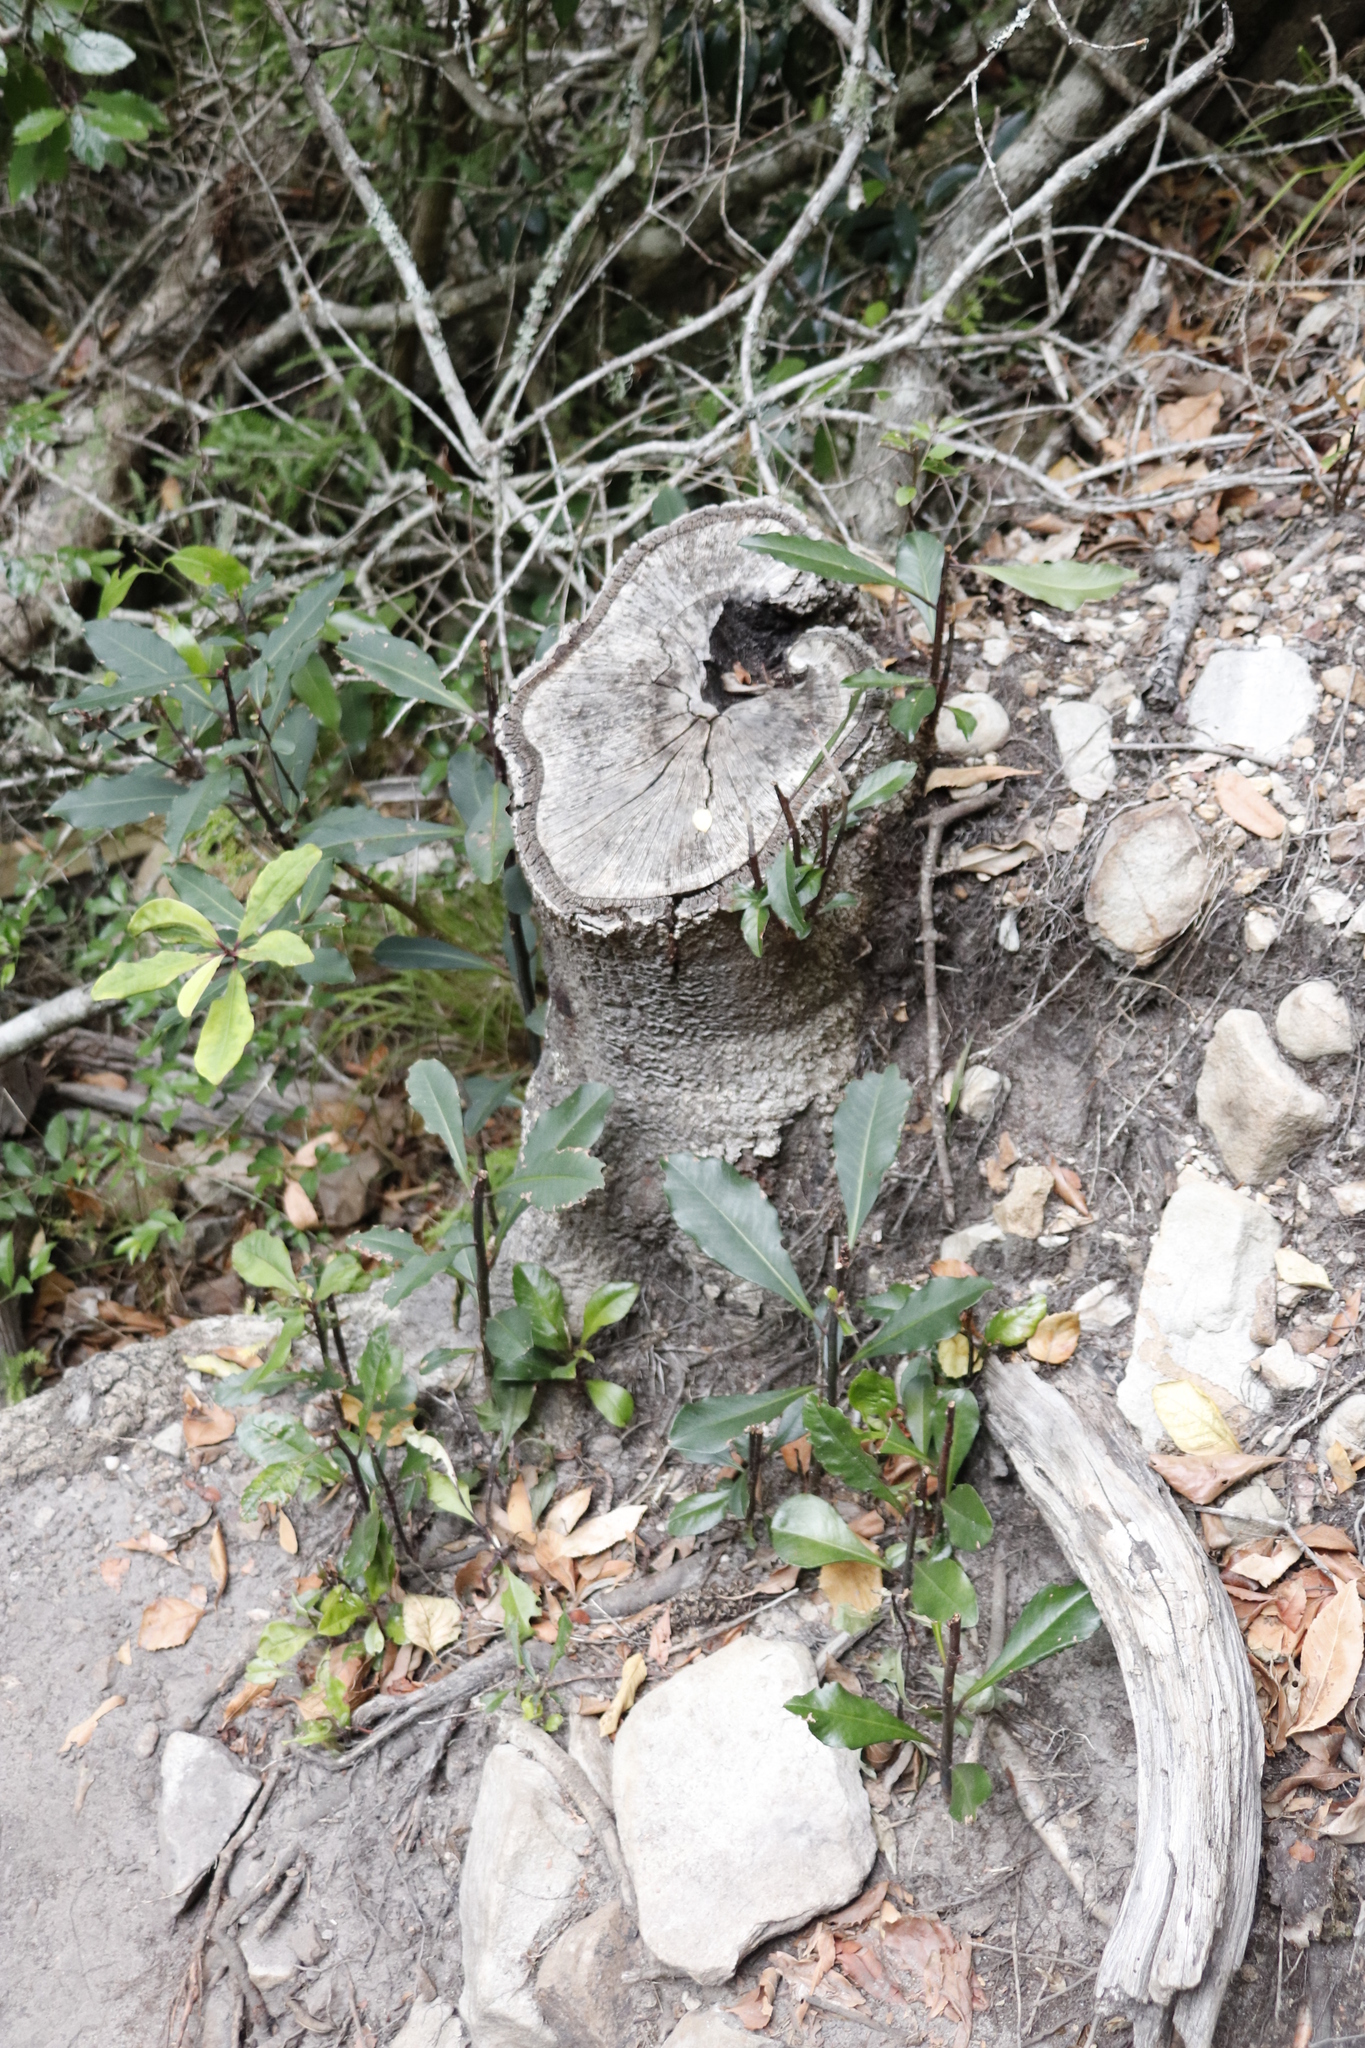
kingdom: Plantae
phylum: Tracheophyta
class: Magnoliopsida
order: Ericales
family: Primulaceae
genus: Myrsine
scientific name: Myrsine melanophloeos
